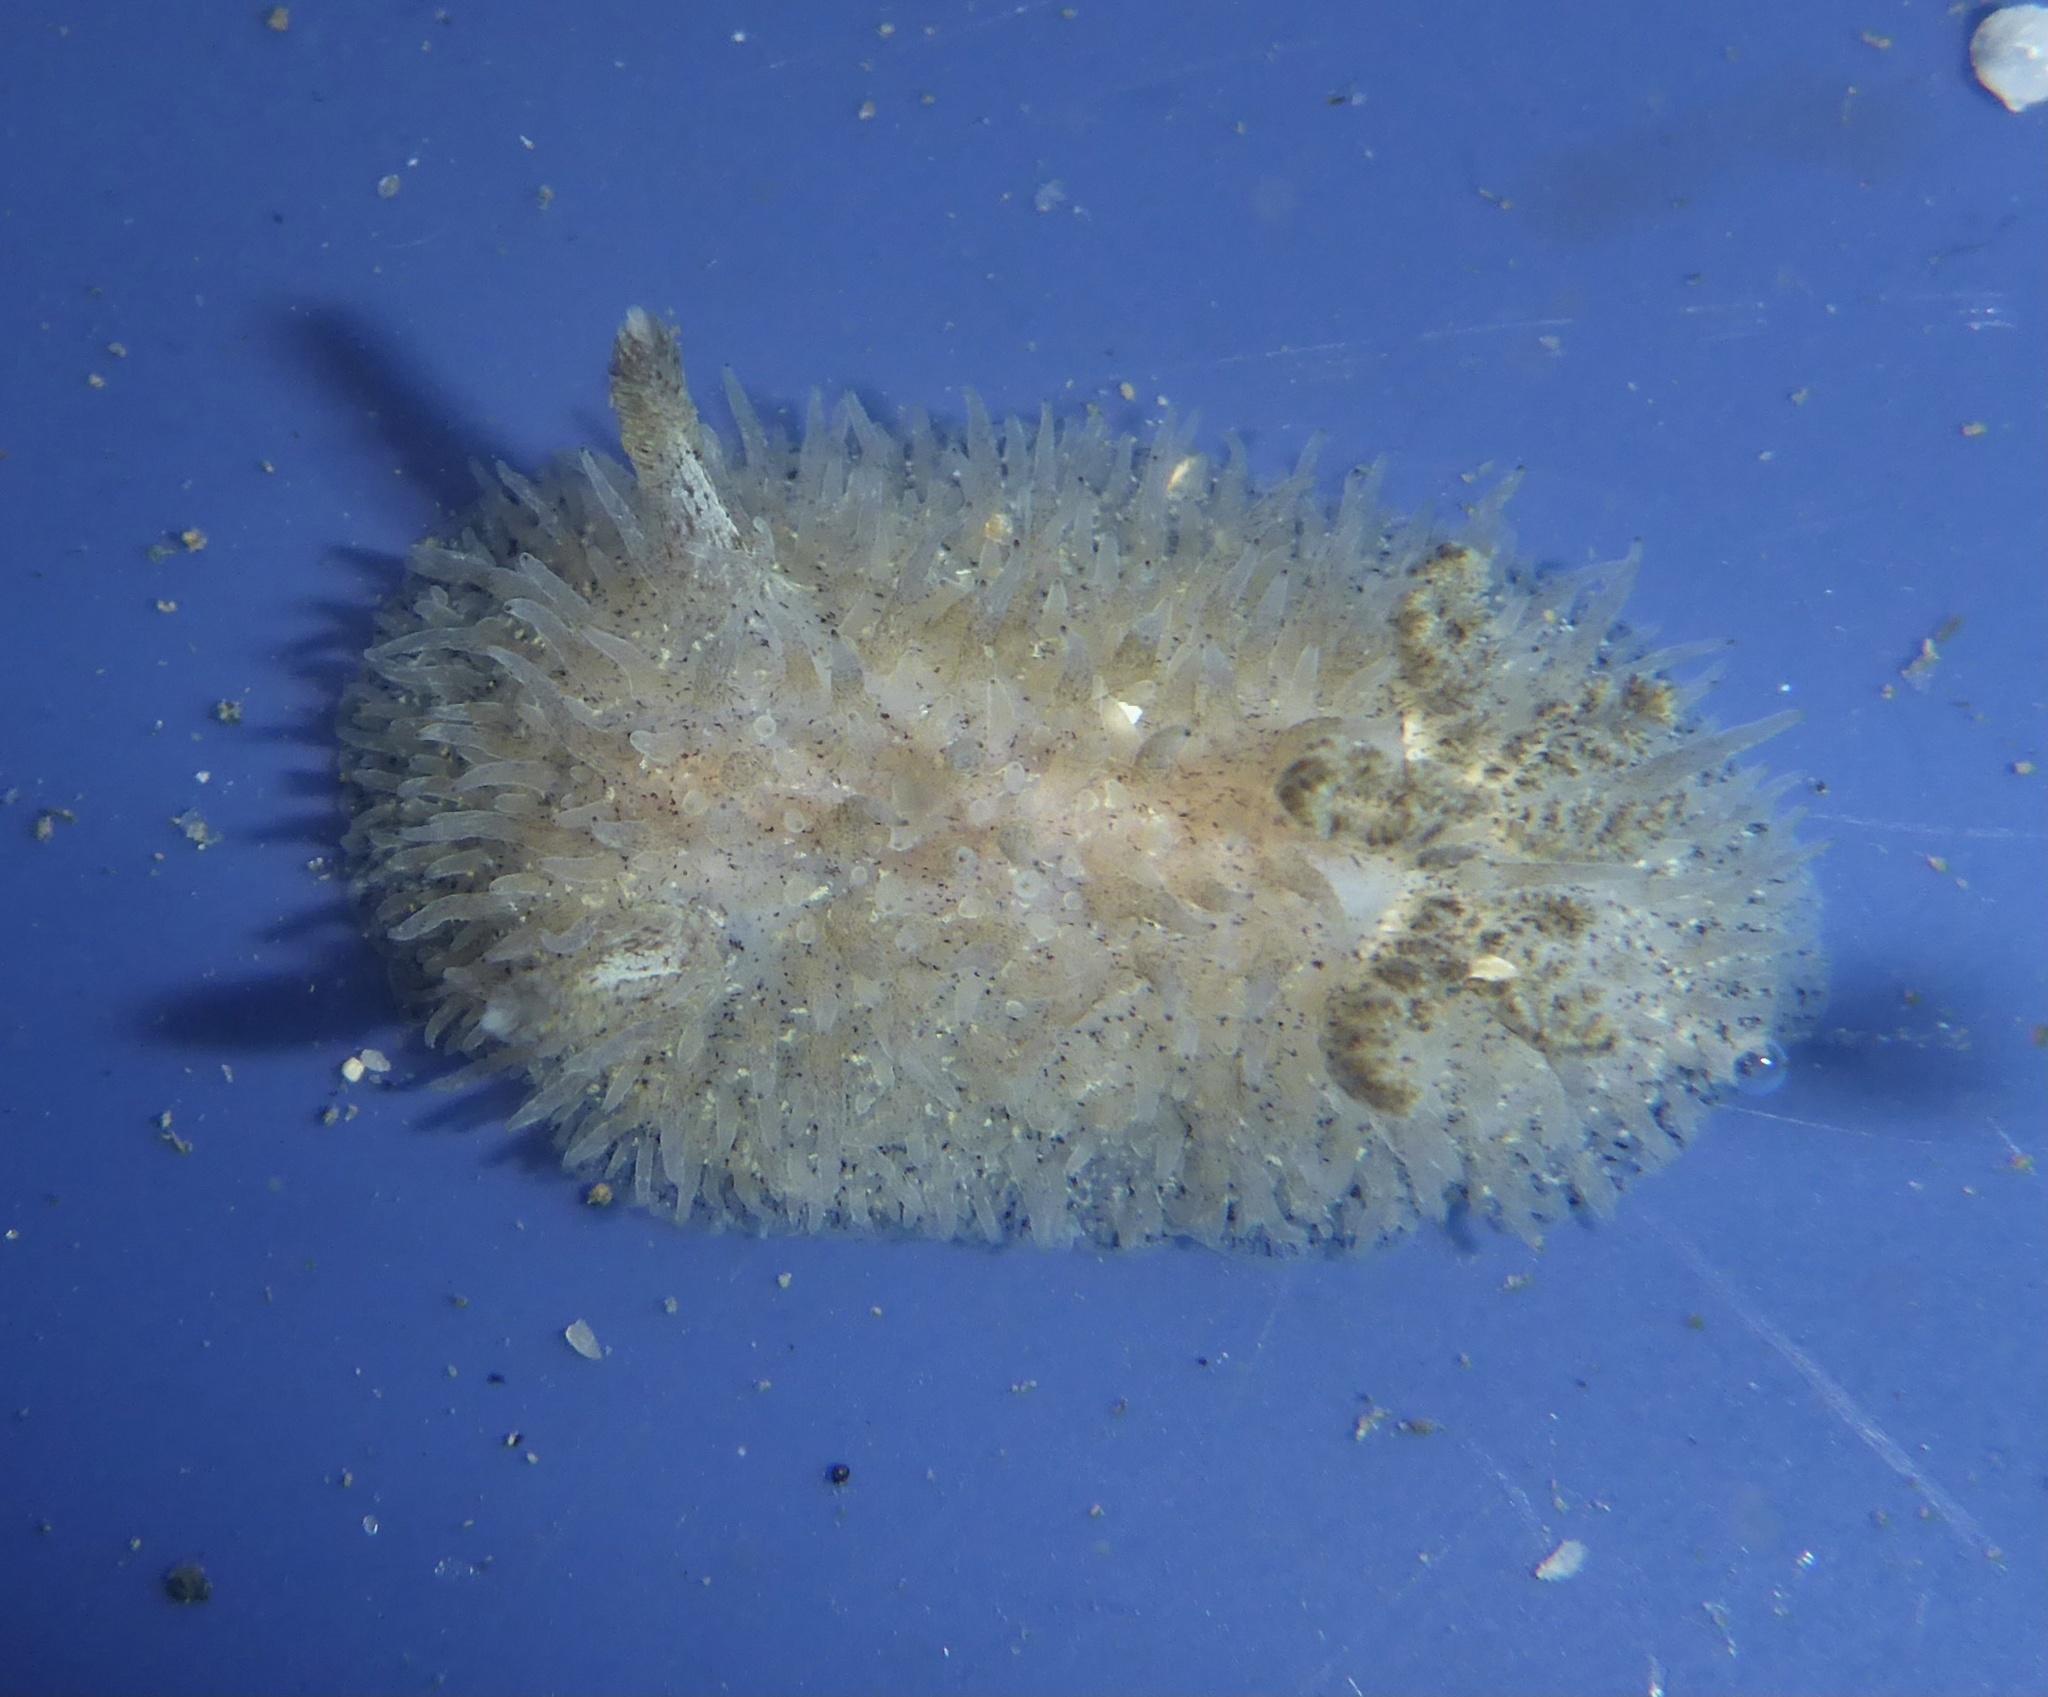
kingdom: Animalia
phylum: Mollusca
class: Gastropoda
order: Nudibranchia
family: Onchidorididae
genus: Acanthodoris
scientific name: Acanthodoris rhodoceras
